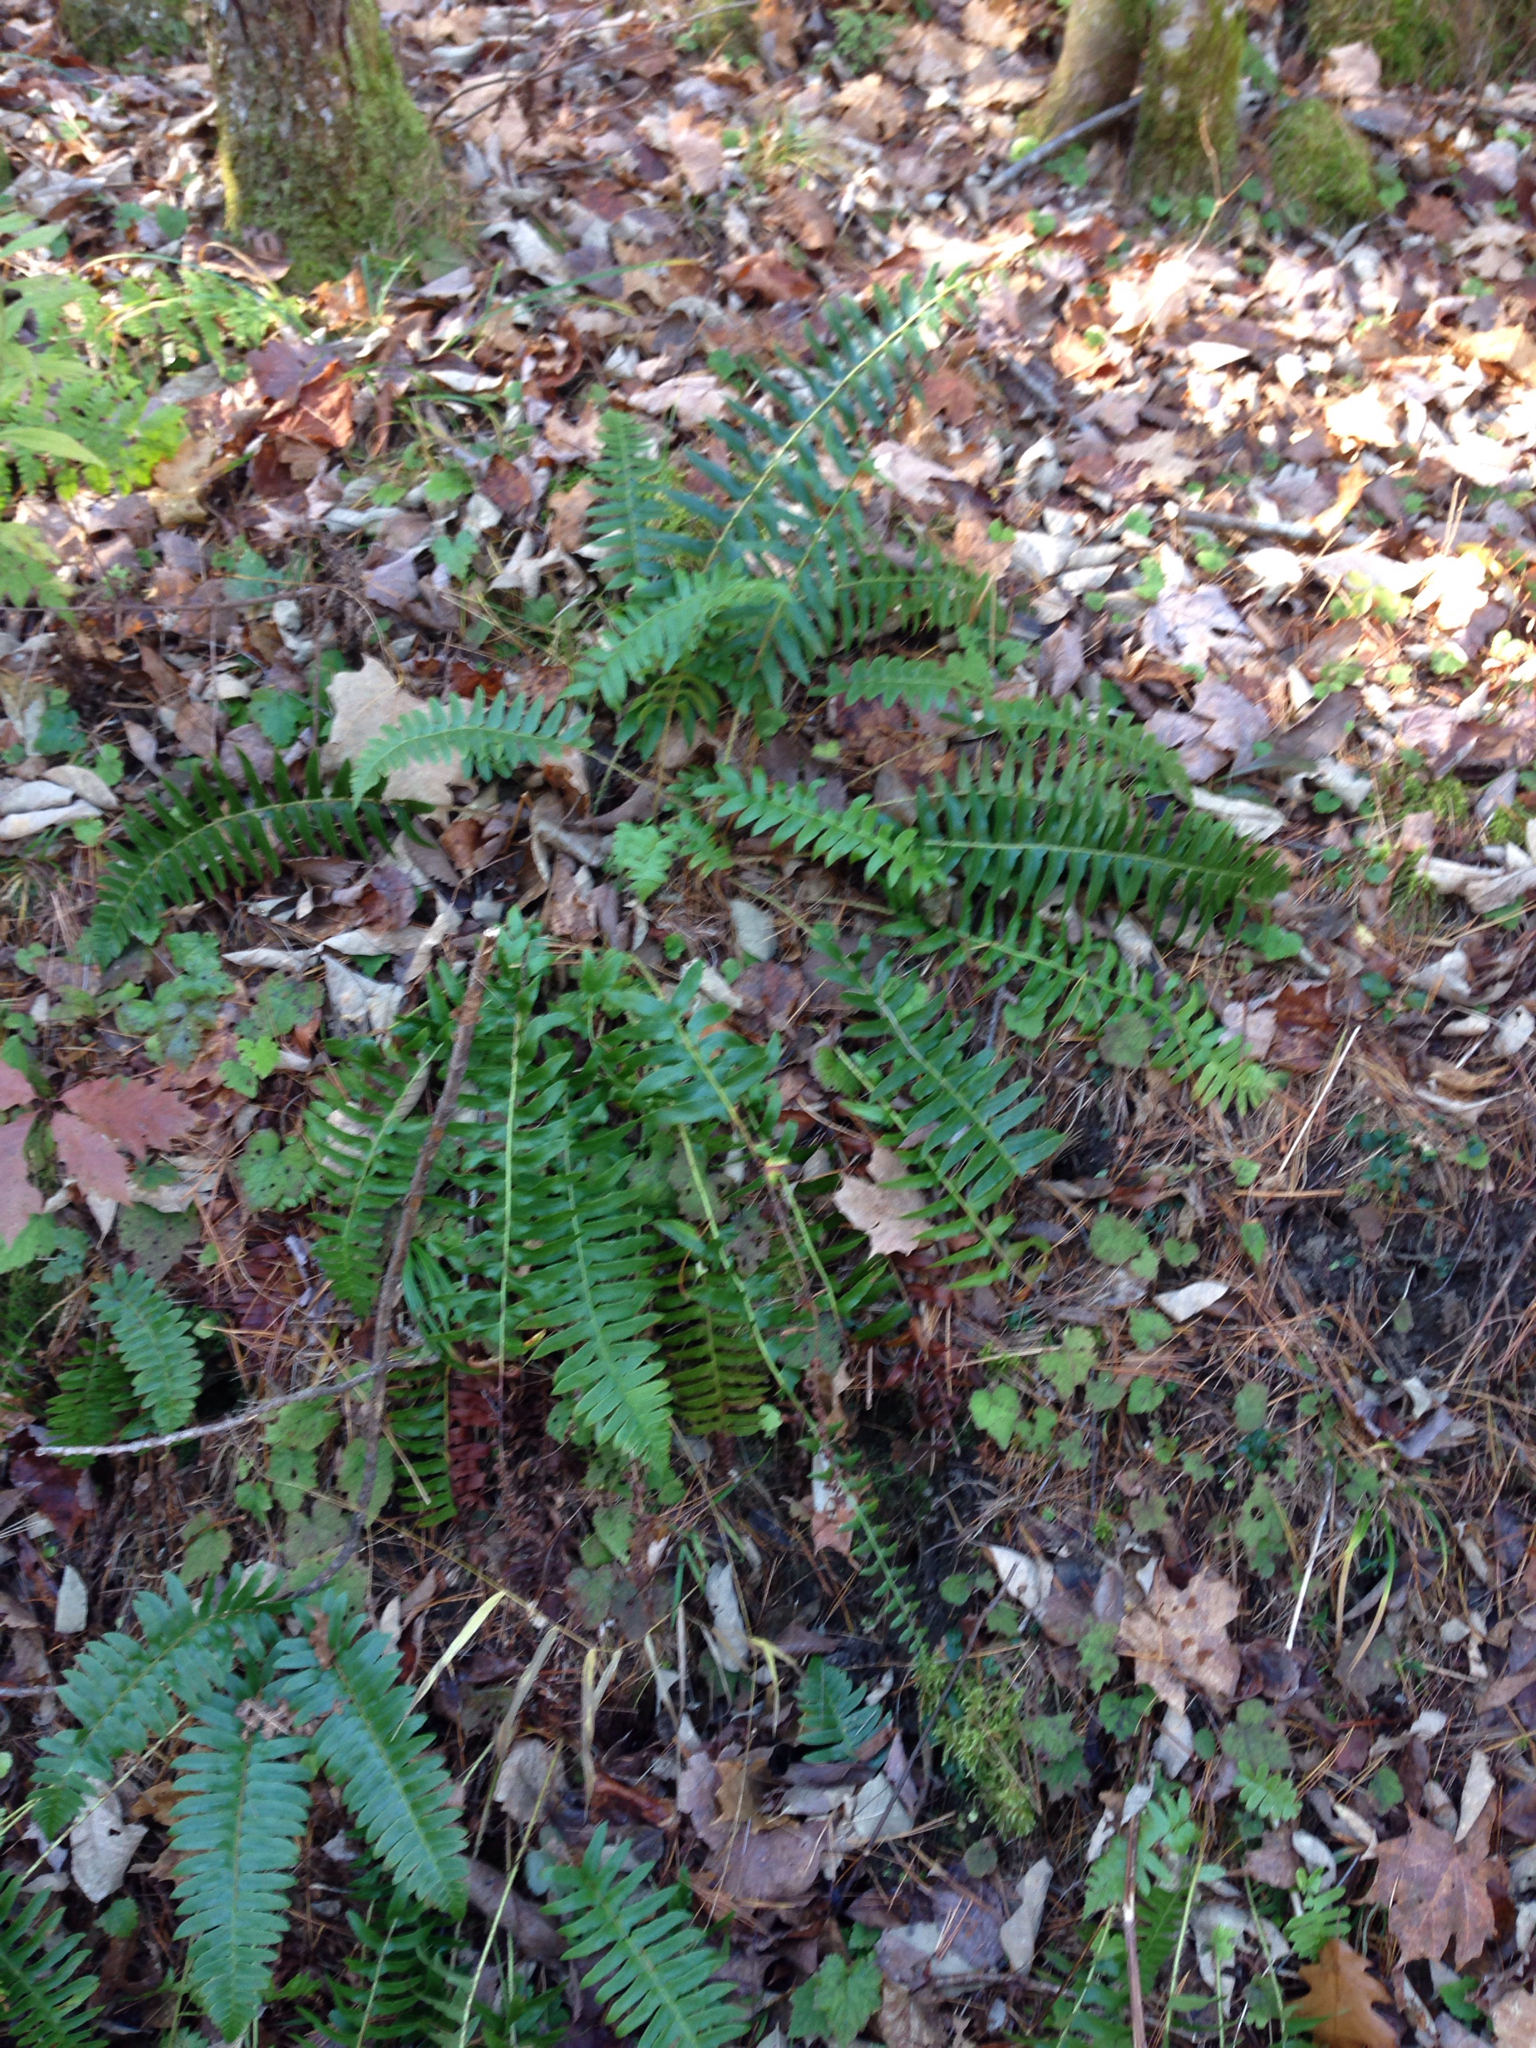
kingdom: Plantae
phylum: Tracheophyta
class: Polypodiopsida
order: Polypodiales
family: Dryopteridaceae
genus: Polystichum
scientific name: Polystichum acrostichoides
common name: Christmas fern
